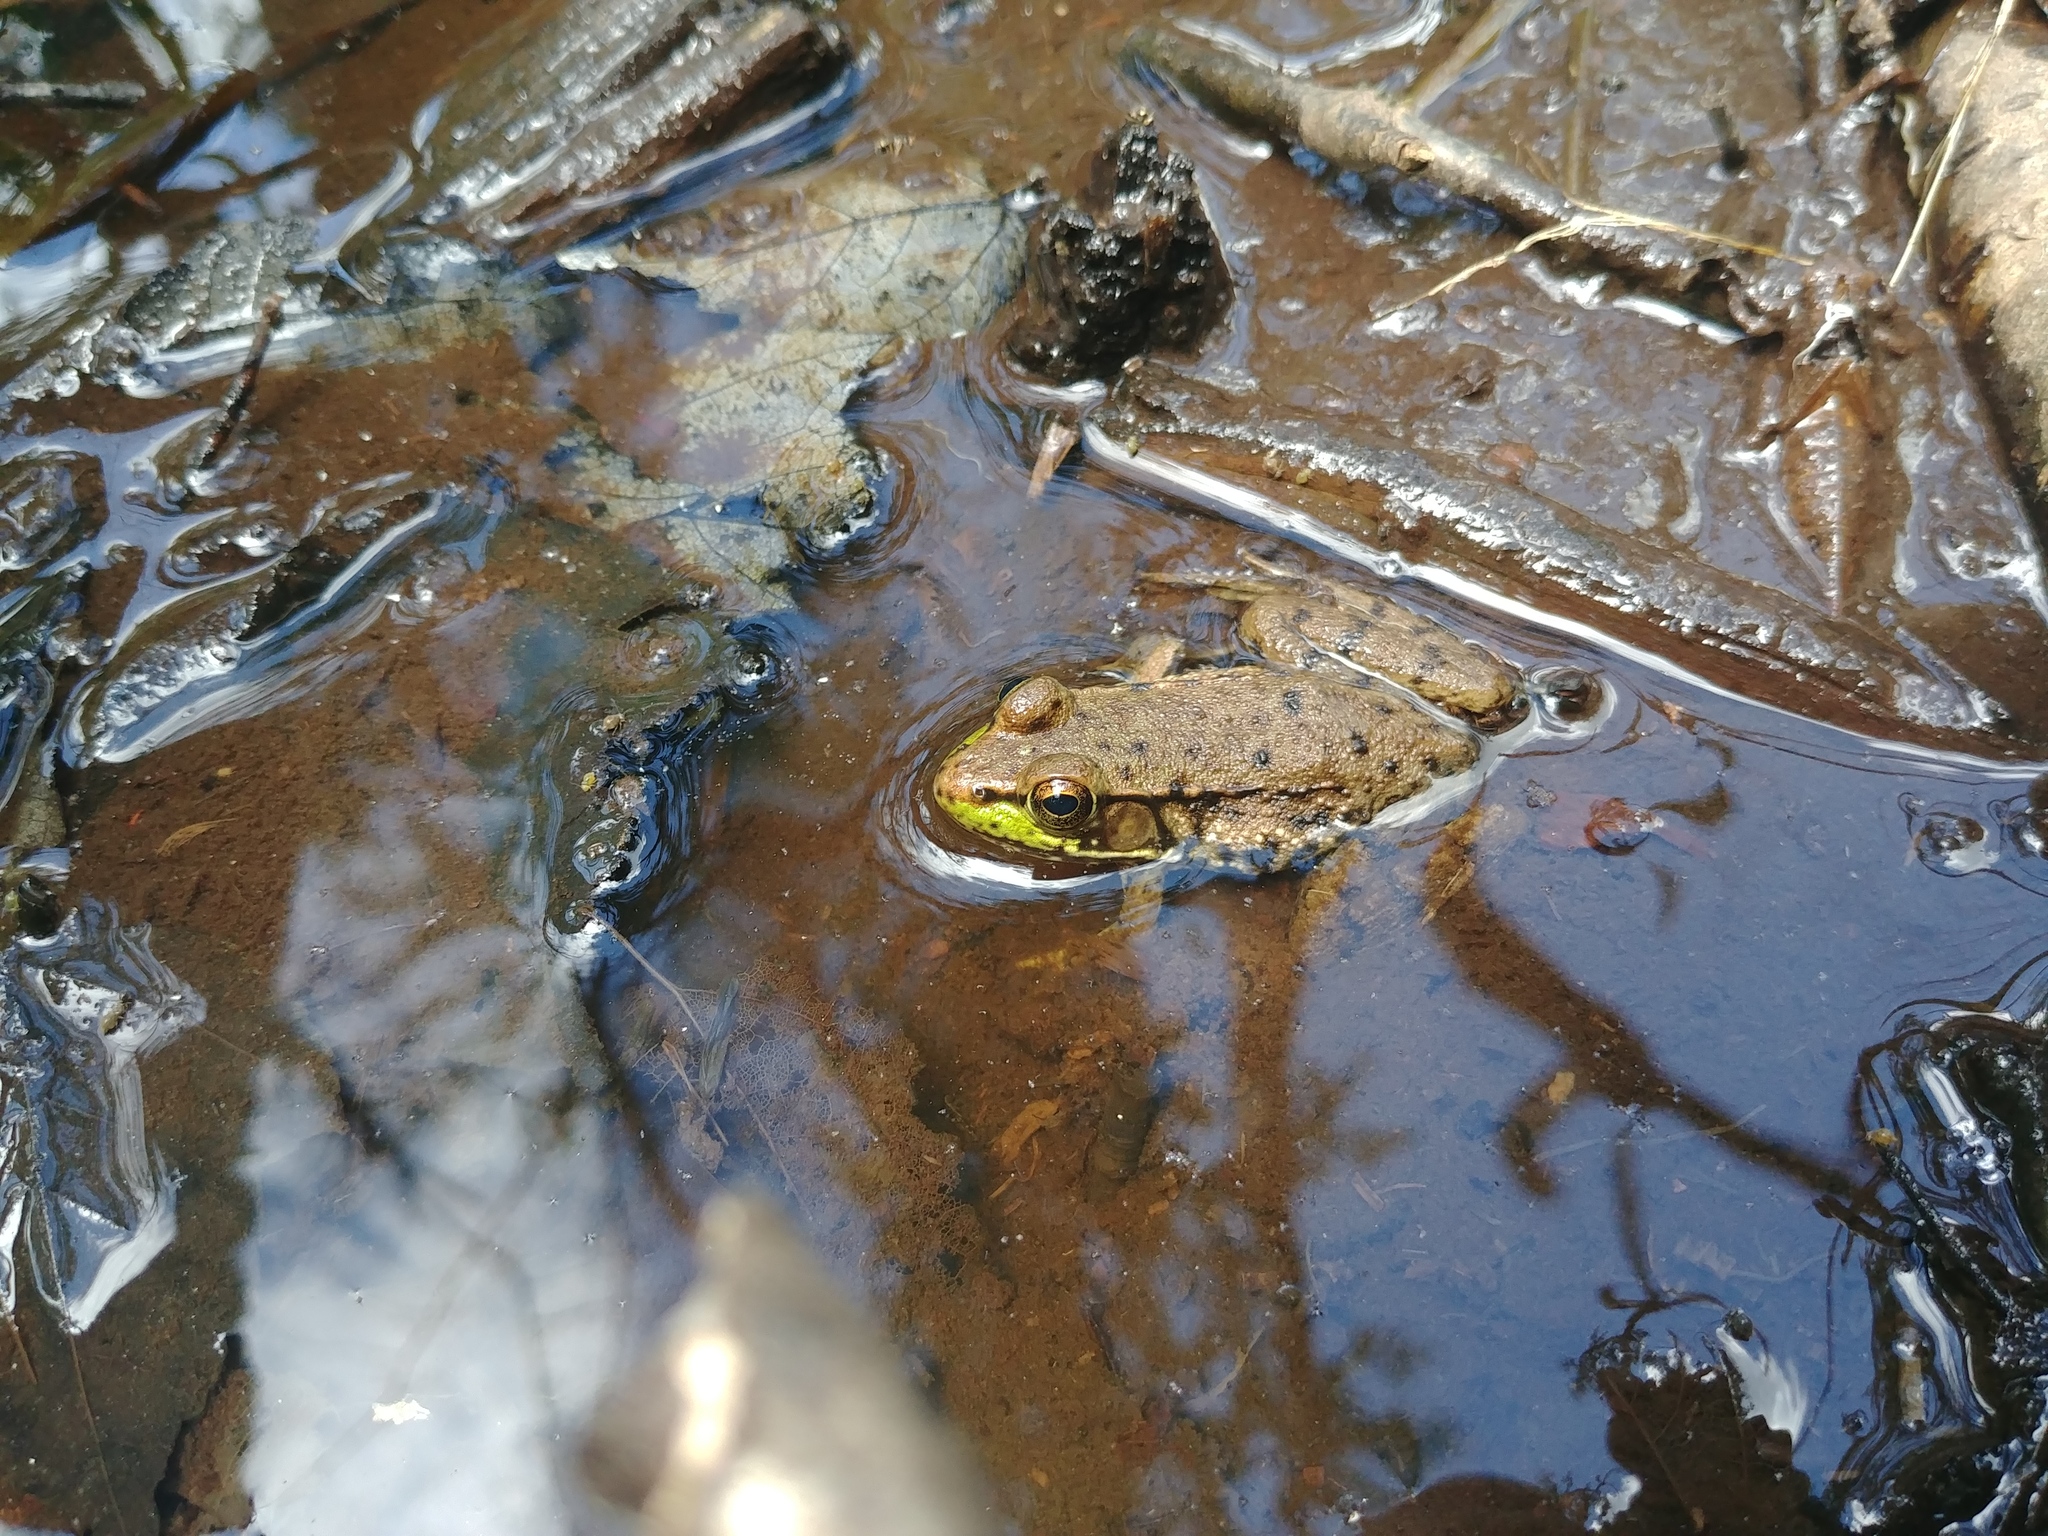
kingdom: Animalia
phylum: Chordata
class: Amphibia
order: Anura
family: Ranidae
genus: Lithobates
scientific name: Lithobates clamitans
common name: Green frog
